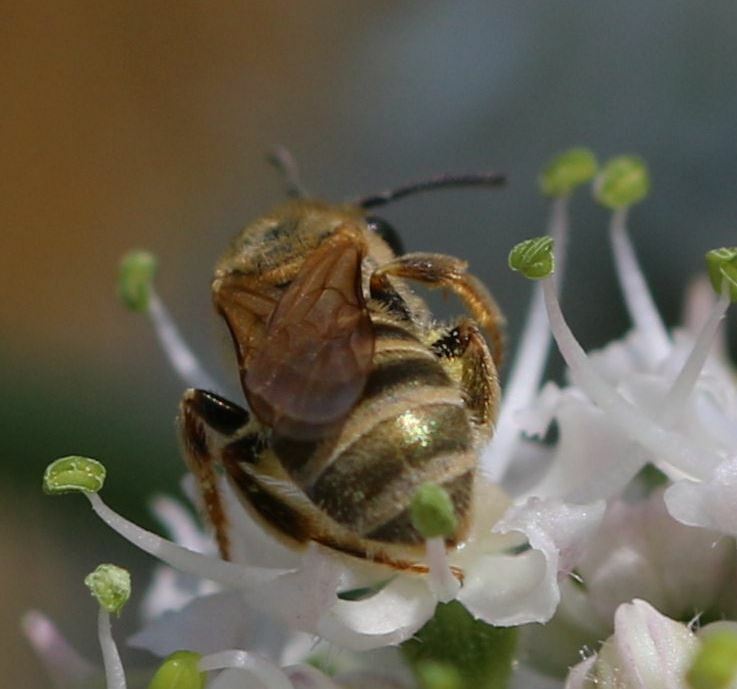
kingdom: Animalia
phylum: Arthropoda
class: Insecta
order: Hymenoptera
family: Halictidae
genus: Halictus
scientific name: Halictus subauratus
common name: Golden furrow bee
